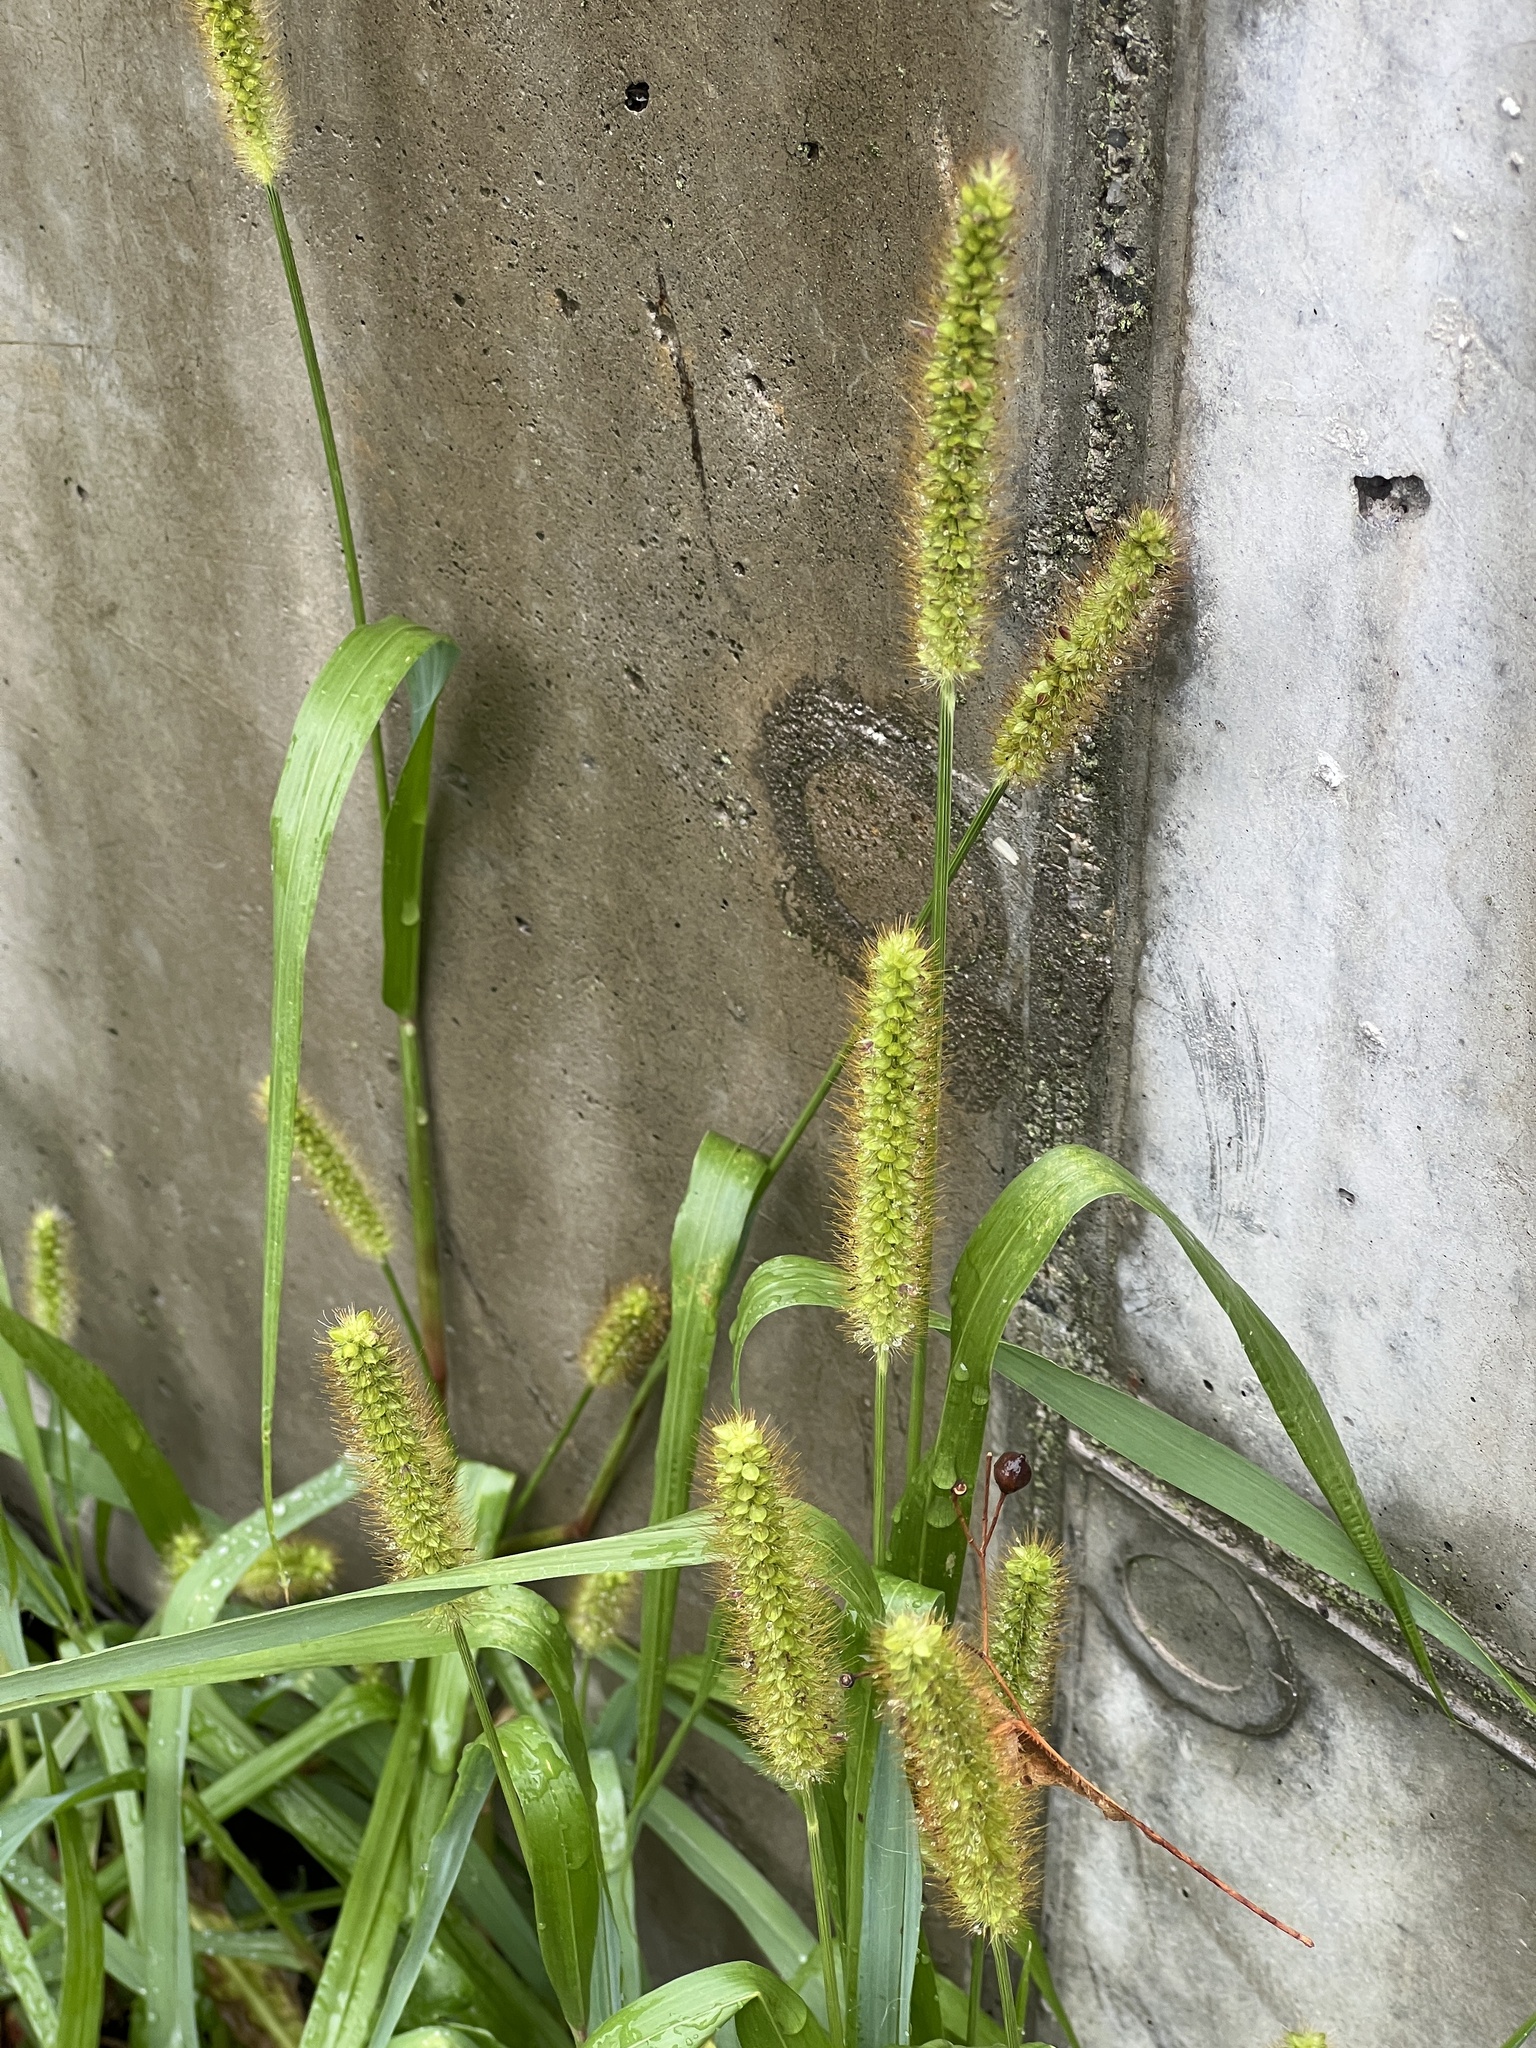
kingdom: Plantae
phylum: Tracheophyta
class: Liliopsida
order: Poales
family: Poaceae
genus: Setaria
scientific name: Setaria pumila
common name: Yellow bristle-grass
